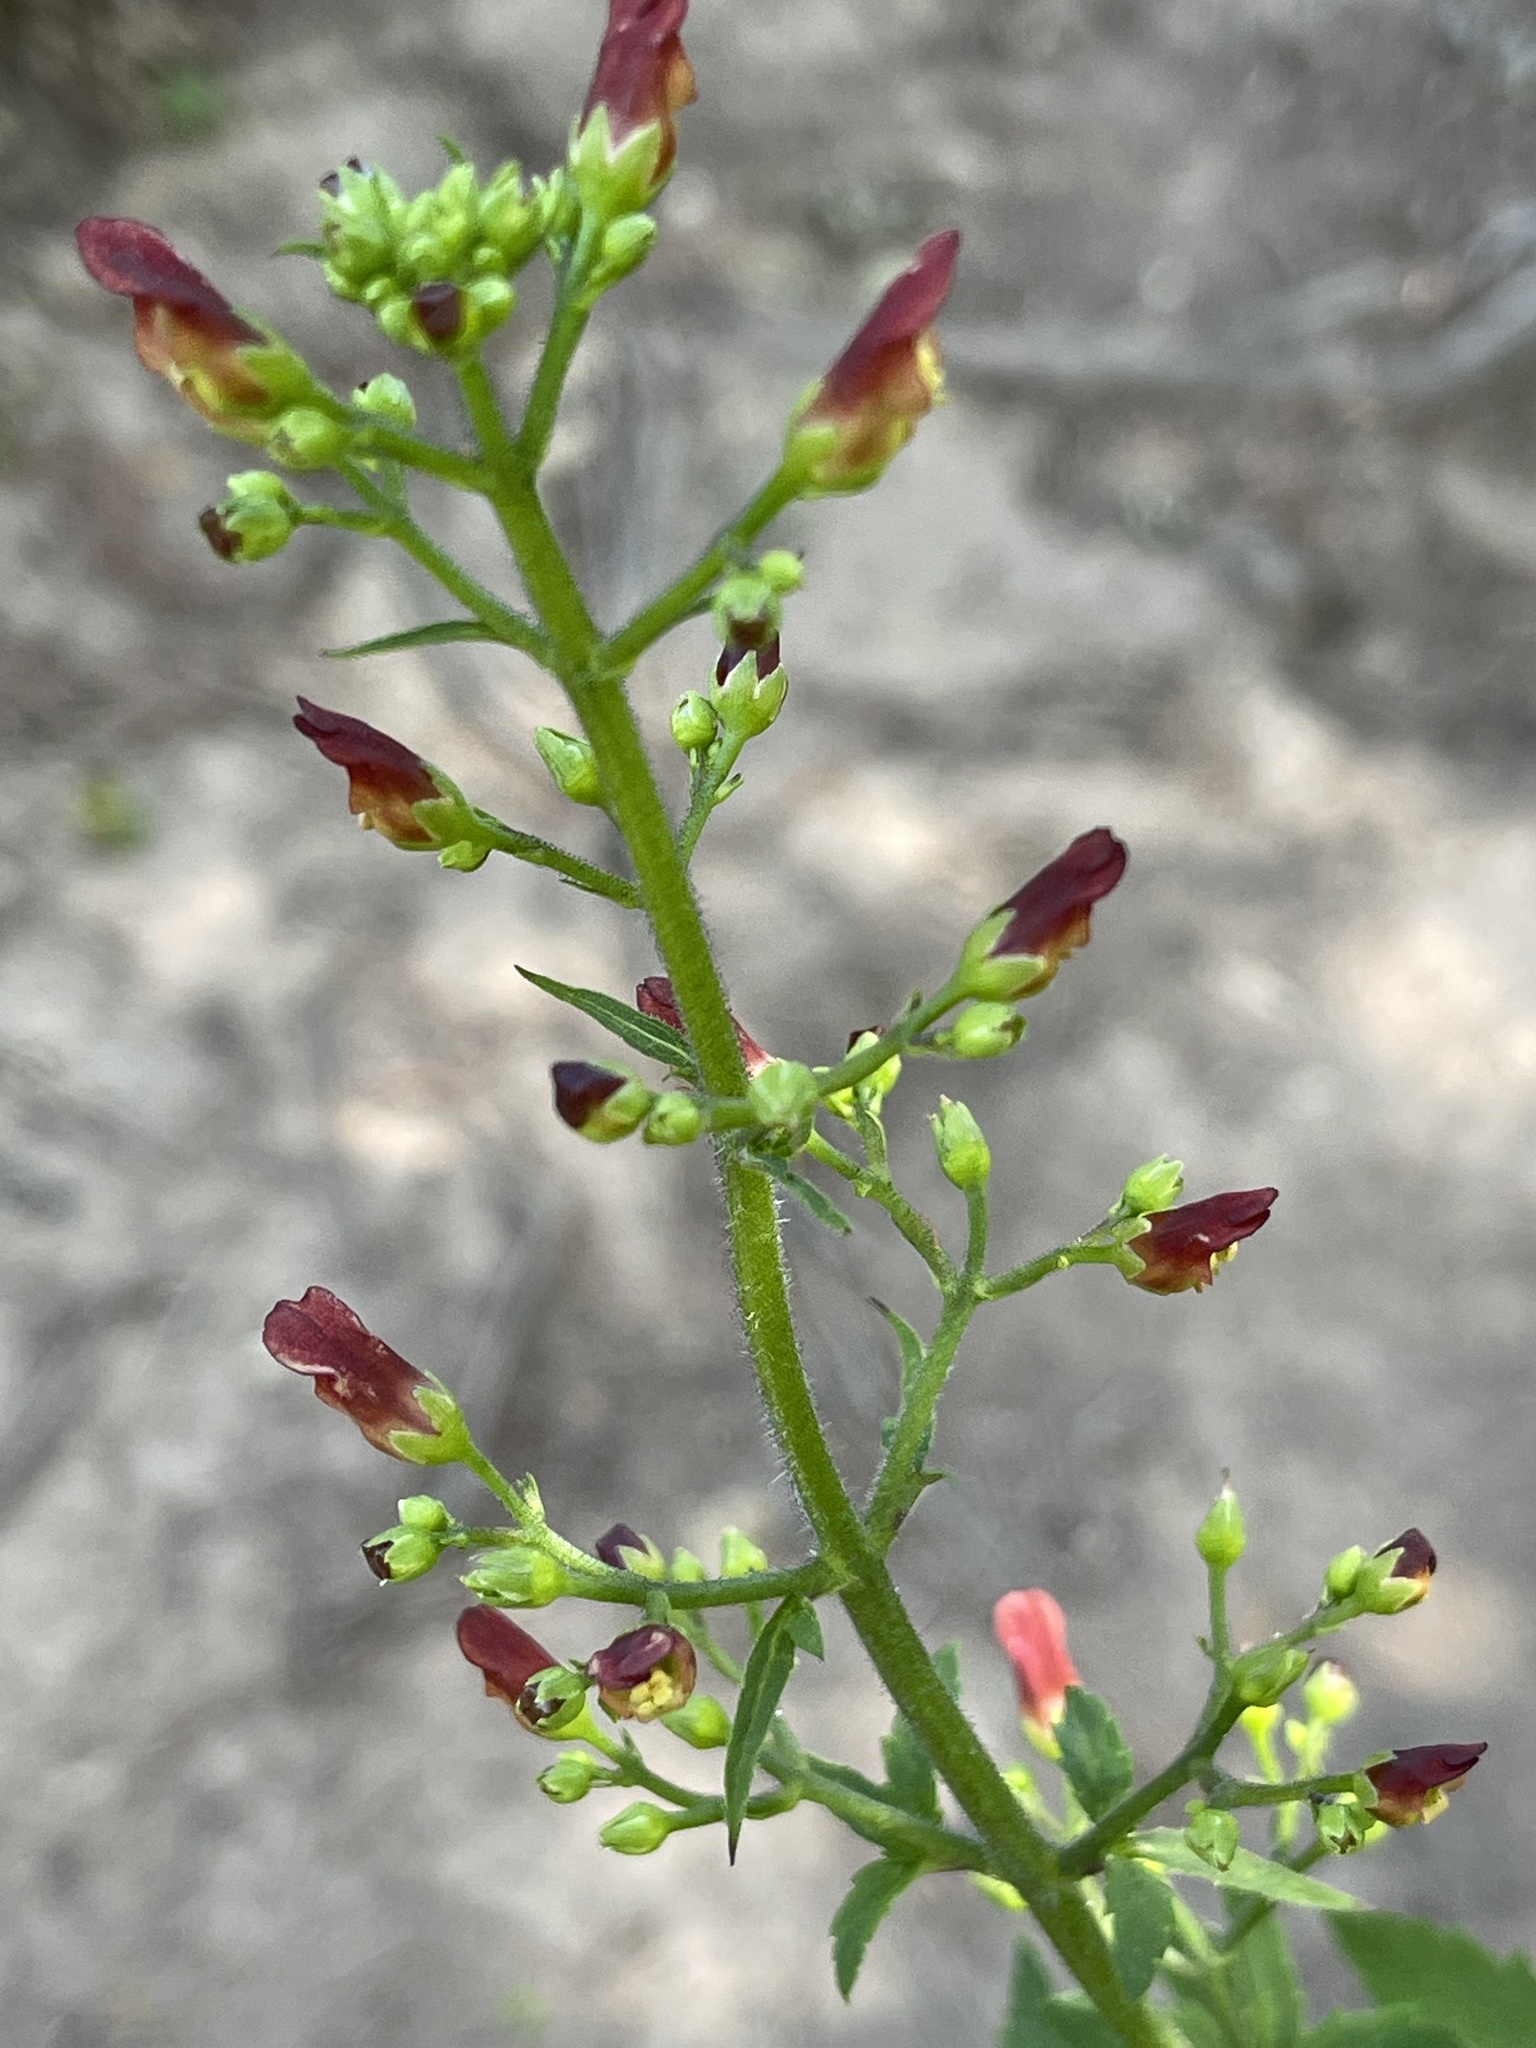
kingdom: Plantae
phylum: Tracheophyta
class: Magnoliopsida
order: Lamiales
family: Scrophulariaceae
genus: Scrophularia
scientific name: Scrophularia californica
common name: California figwort
